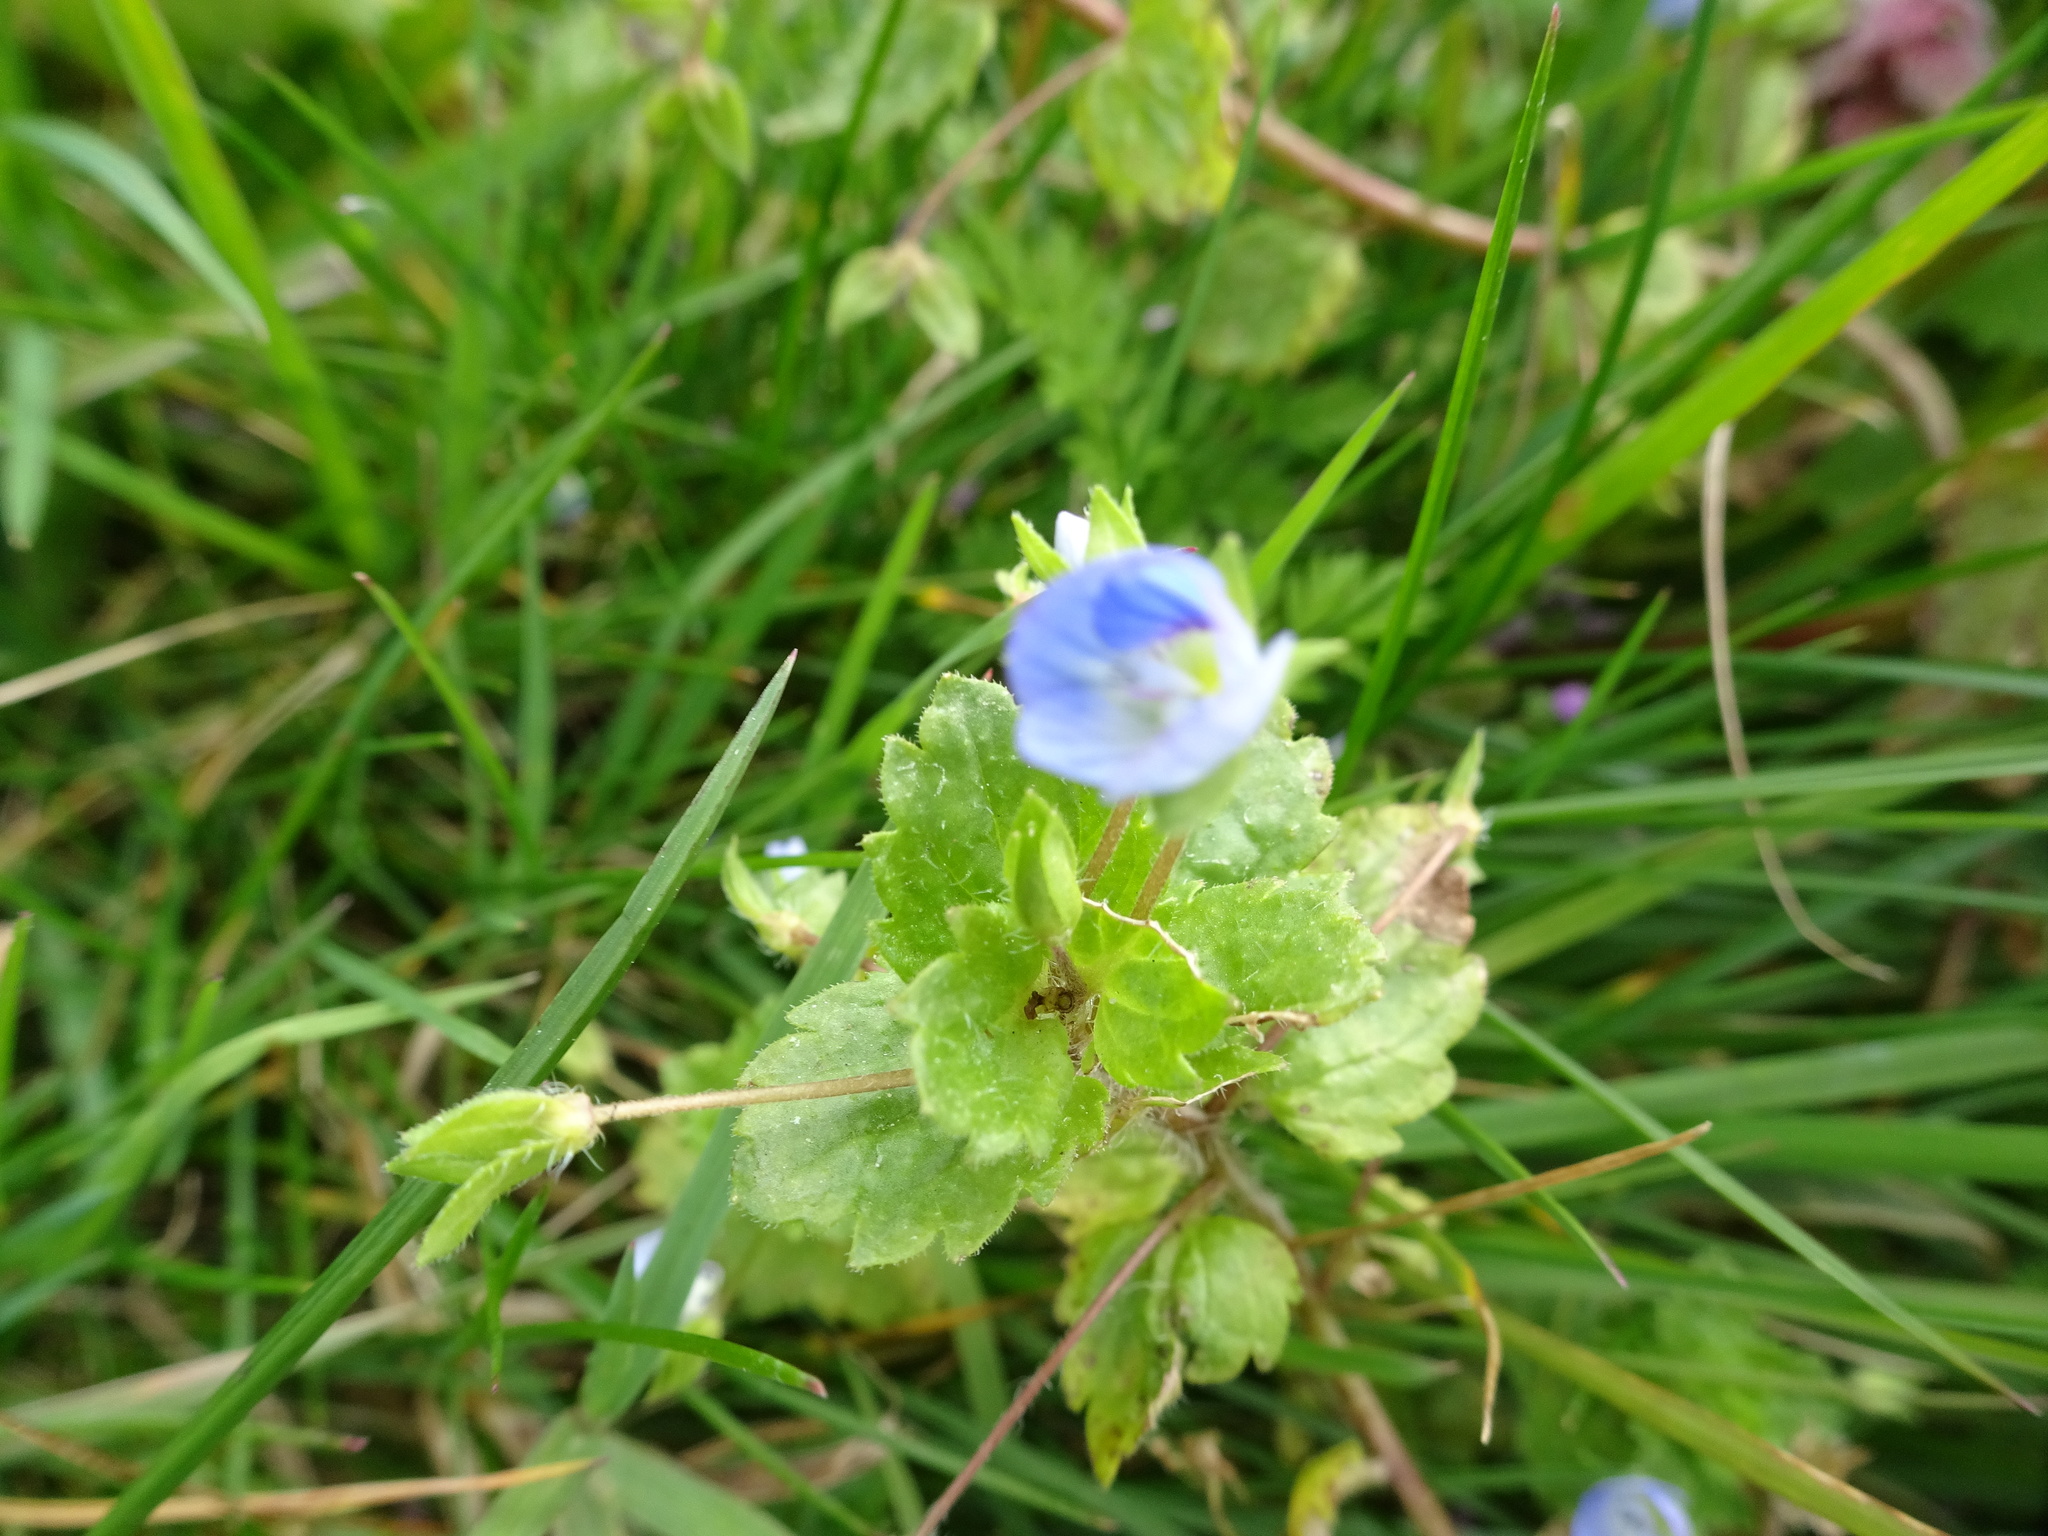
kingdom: Plantae
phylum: Tracheophyta
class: Magnoliopsida
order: Lamiales
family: Plantaginaceae
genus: Veronica
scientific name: Veronica persica
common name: Common field-speedwell
